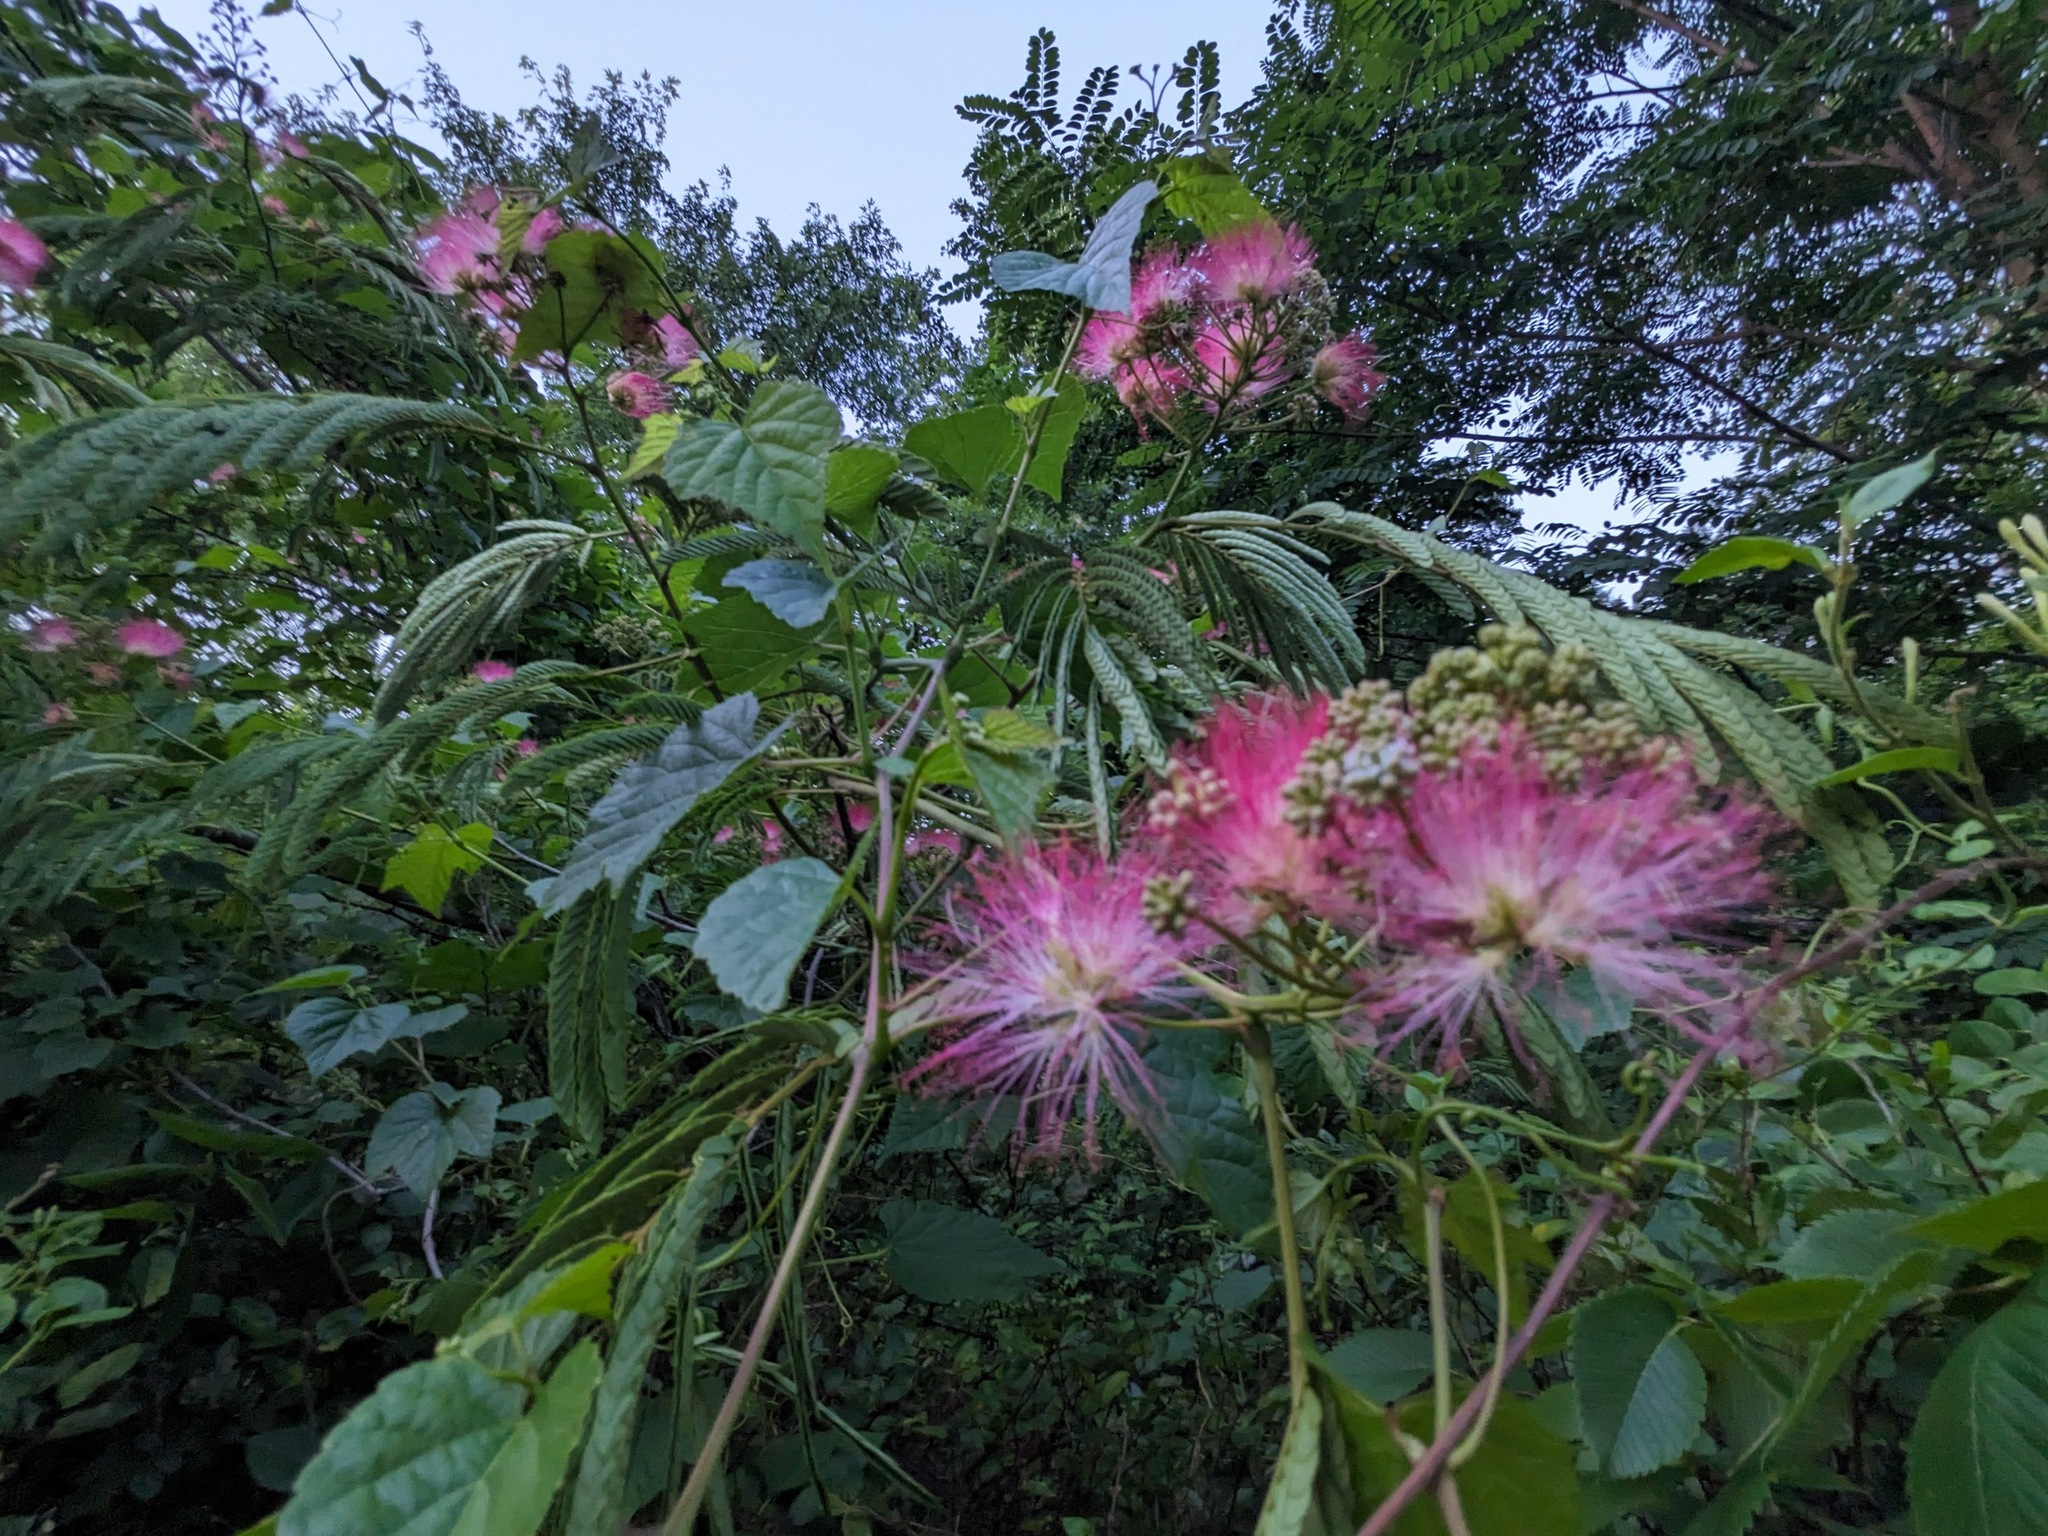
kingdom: Plantae
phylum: Tracheophyta
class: Magnoliopsida
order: Fabales
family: Fabaceae
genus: Albizia
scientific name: Albizia julibrissin
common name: Silktree
